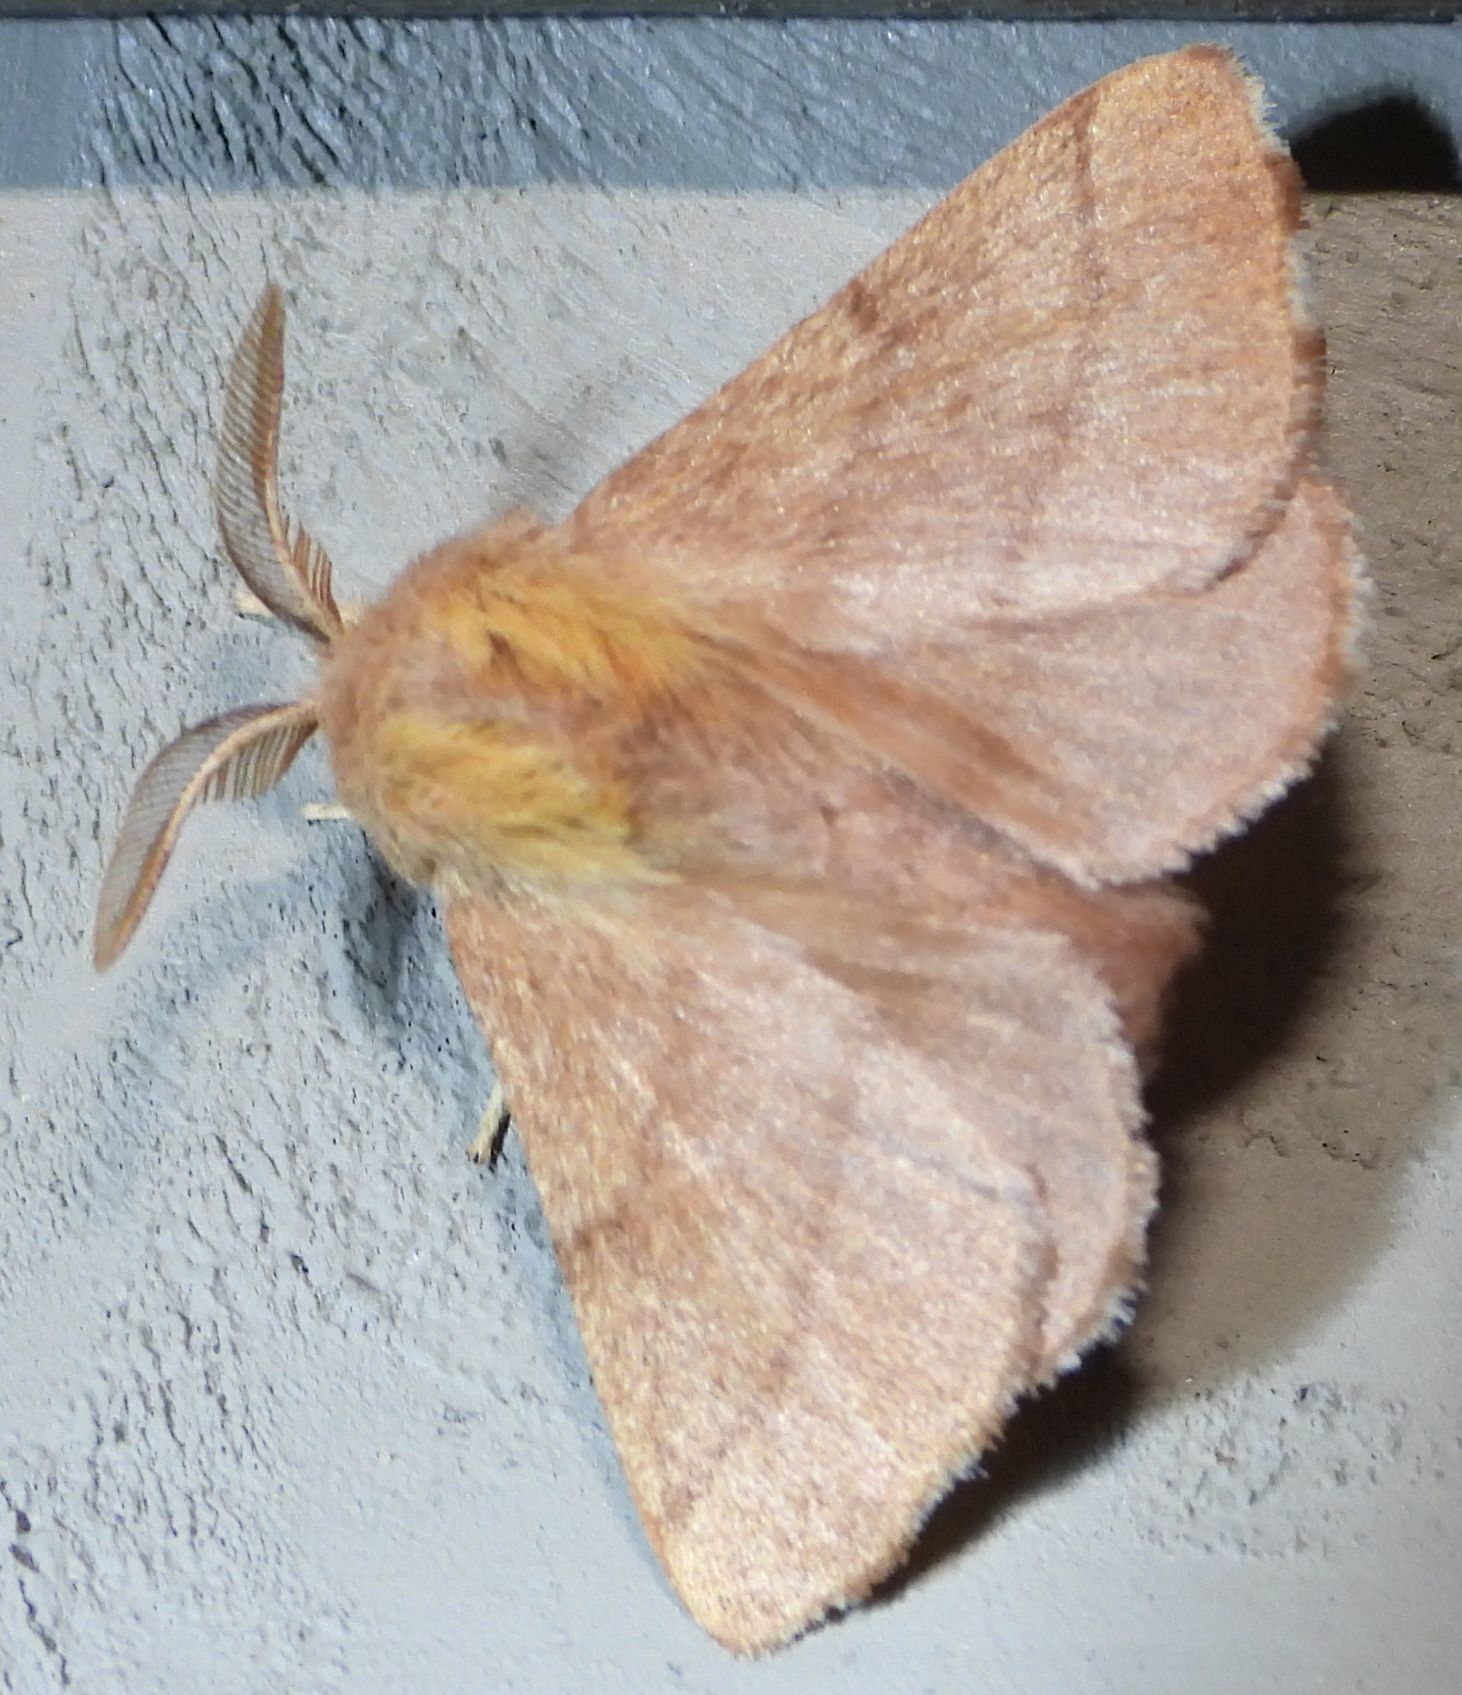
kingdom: Animalia
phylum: Arthropoda
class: Insecta
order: Lepidoptera
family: Lasiocampidae
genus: Malacosoma
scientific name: Malacosoma disstria
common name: Forest tent caterpillar
